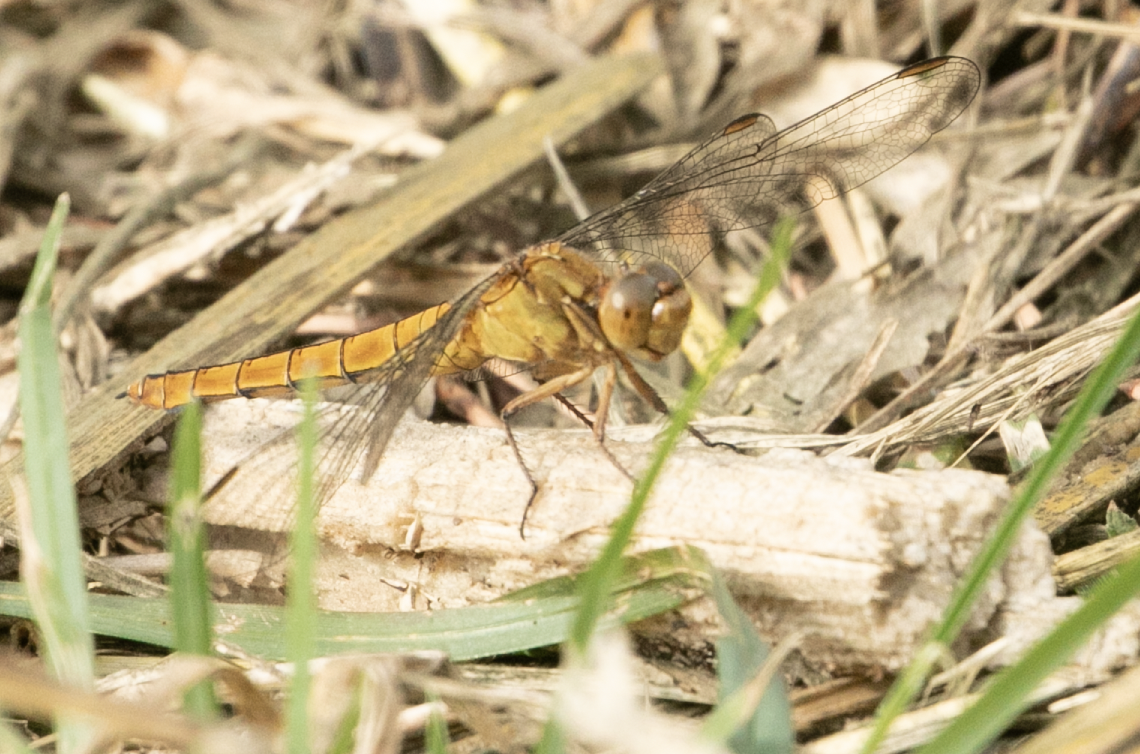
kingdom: Animalia
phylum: Arthropoda
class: Insecta
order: Odonata
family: Libellulidae
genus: Orthetrum
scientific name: Orthetrum coerulescens
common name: Keeled skimmer
